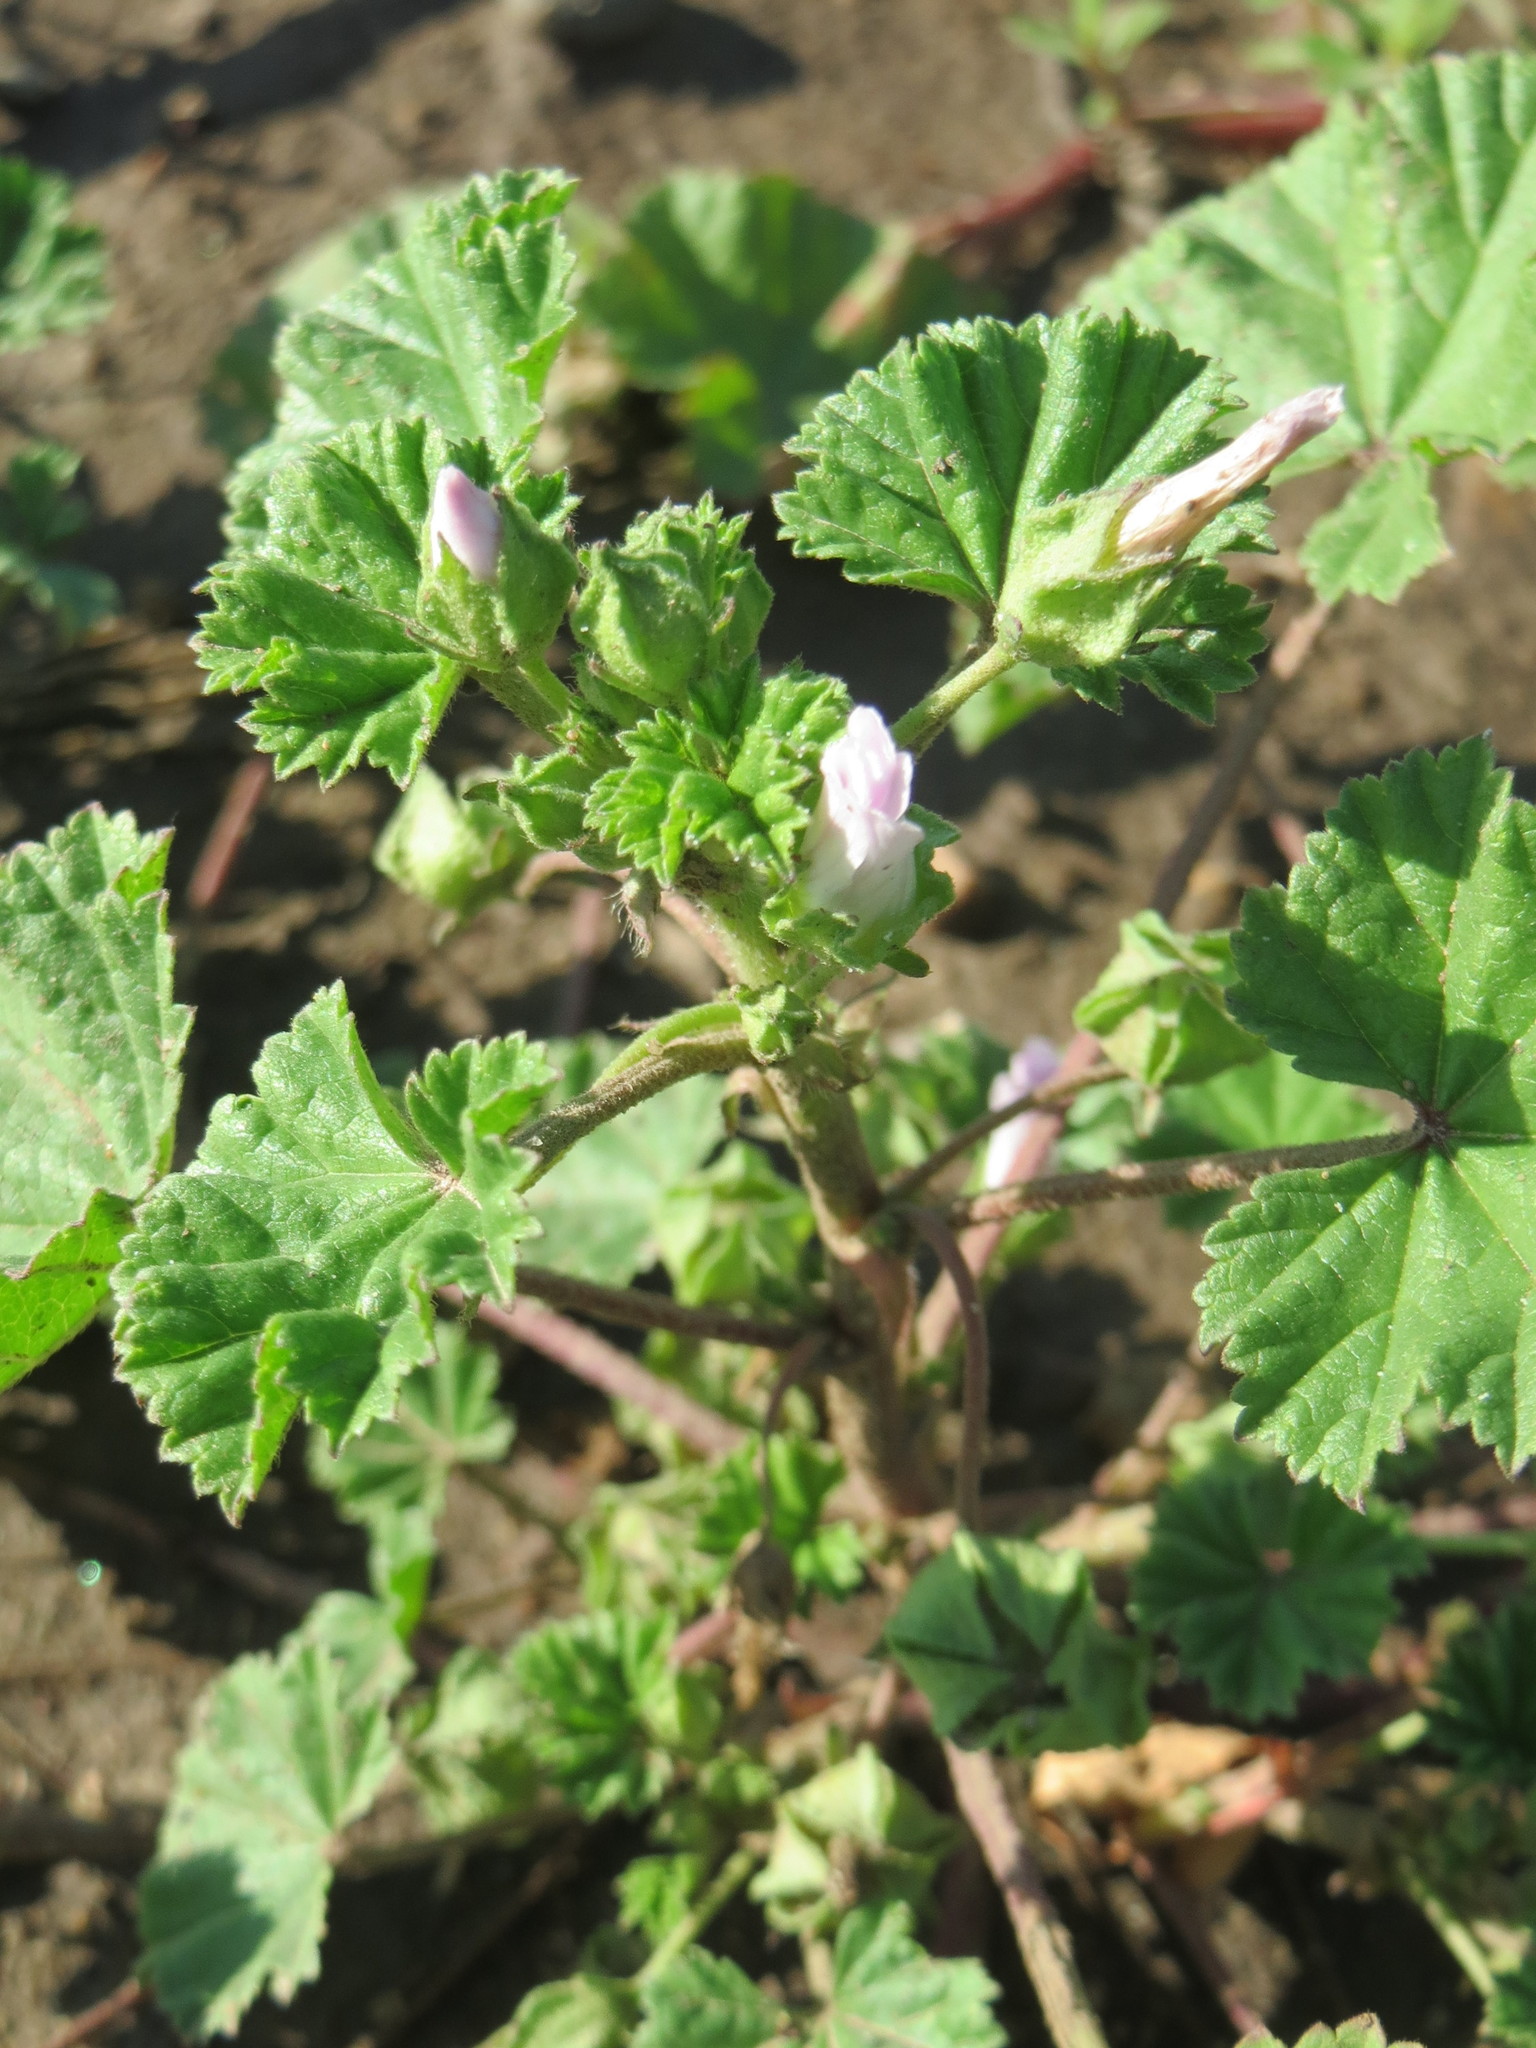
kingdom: Plantae
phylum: Tracheophyta
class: Magnoliopsida
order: Malvales
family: Malvaceae
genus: Malva
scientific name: Malva neglecta
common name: Common mallow
